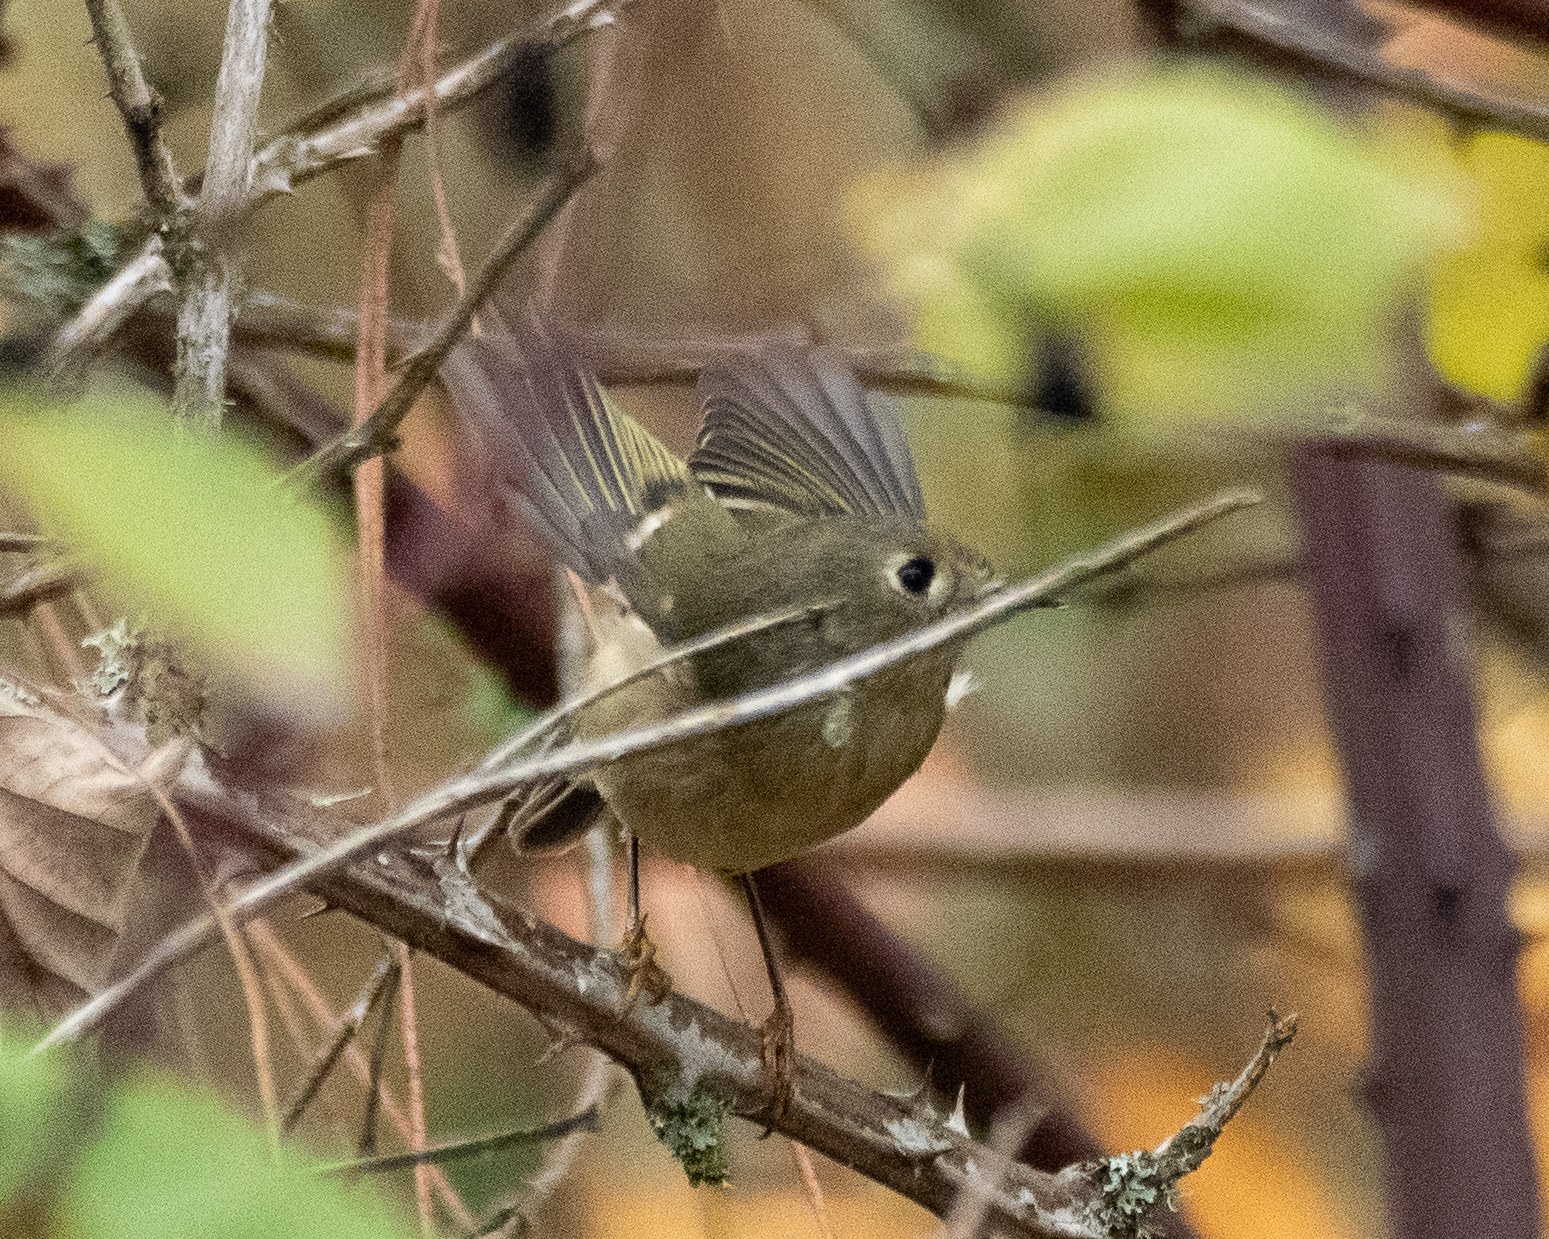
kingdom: Animalia
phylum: Chordata
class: Aves
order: Passeriformes
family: Regulidae
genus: Regulus
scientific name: Regulus calendula
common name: Ruby-crowned kinglet
